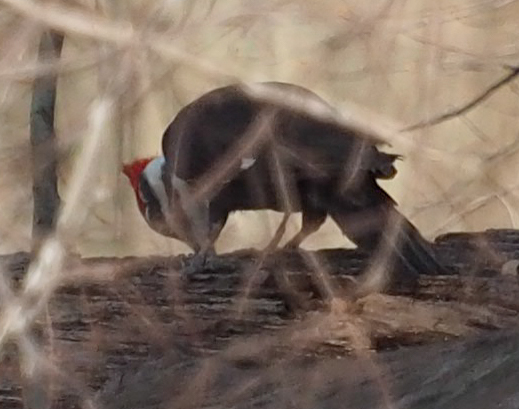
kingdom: Animalia
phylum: Chordata
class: Aves
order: Piciformes
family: Picidae
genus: Dryocopus
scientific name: Dryocopus pileatus
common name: Pileated woodpecker
